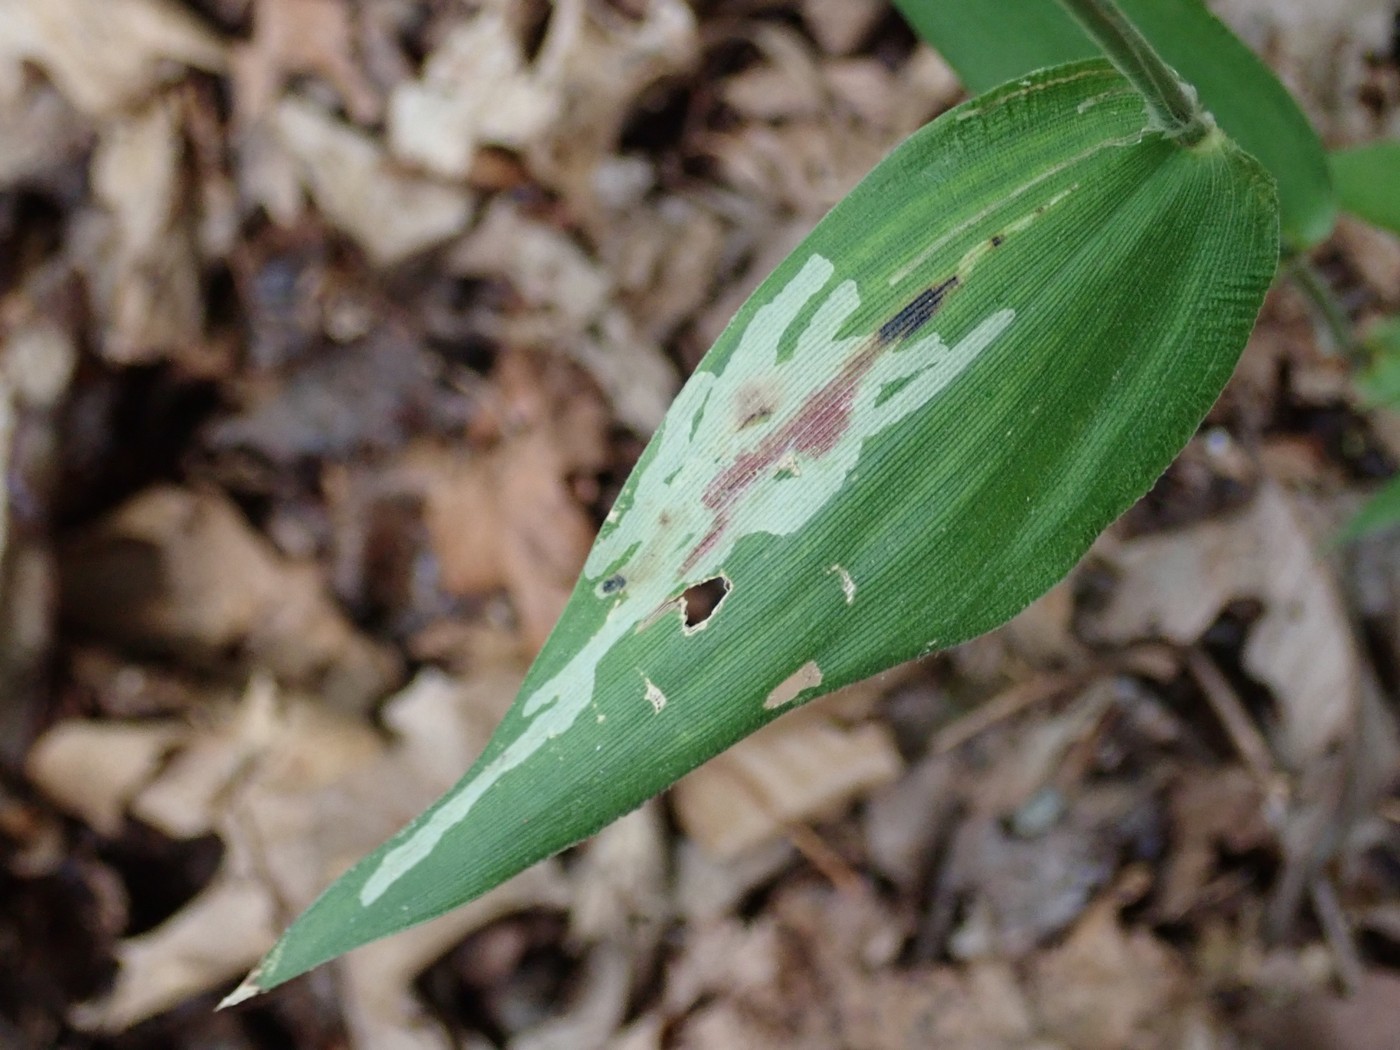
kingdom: Animalia
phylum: Arthropoda
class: Insecta
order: Diptera
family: Agromyzidae
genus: Cerodontha
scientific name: Cerodontha angulata
